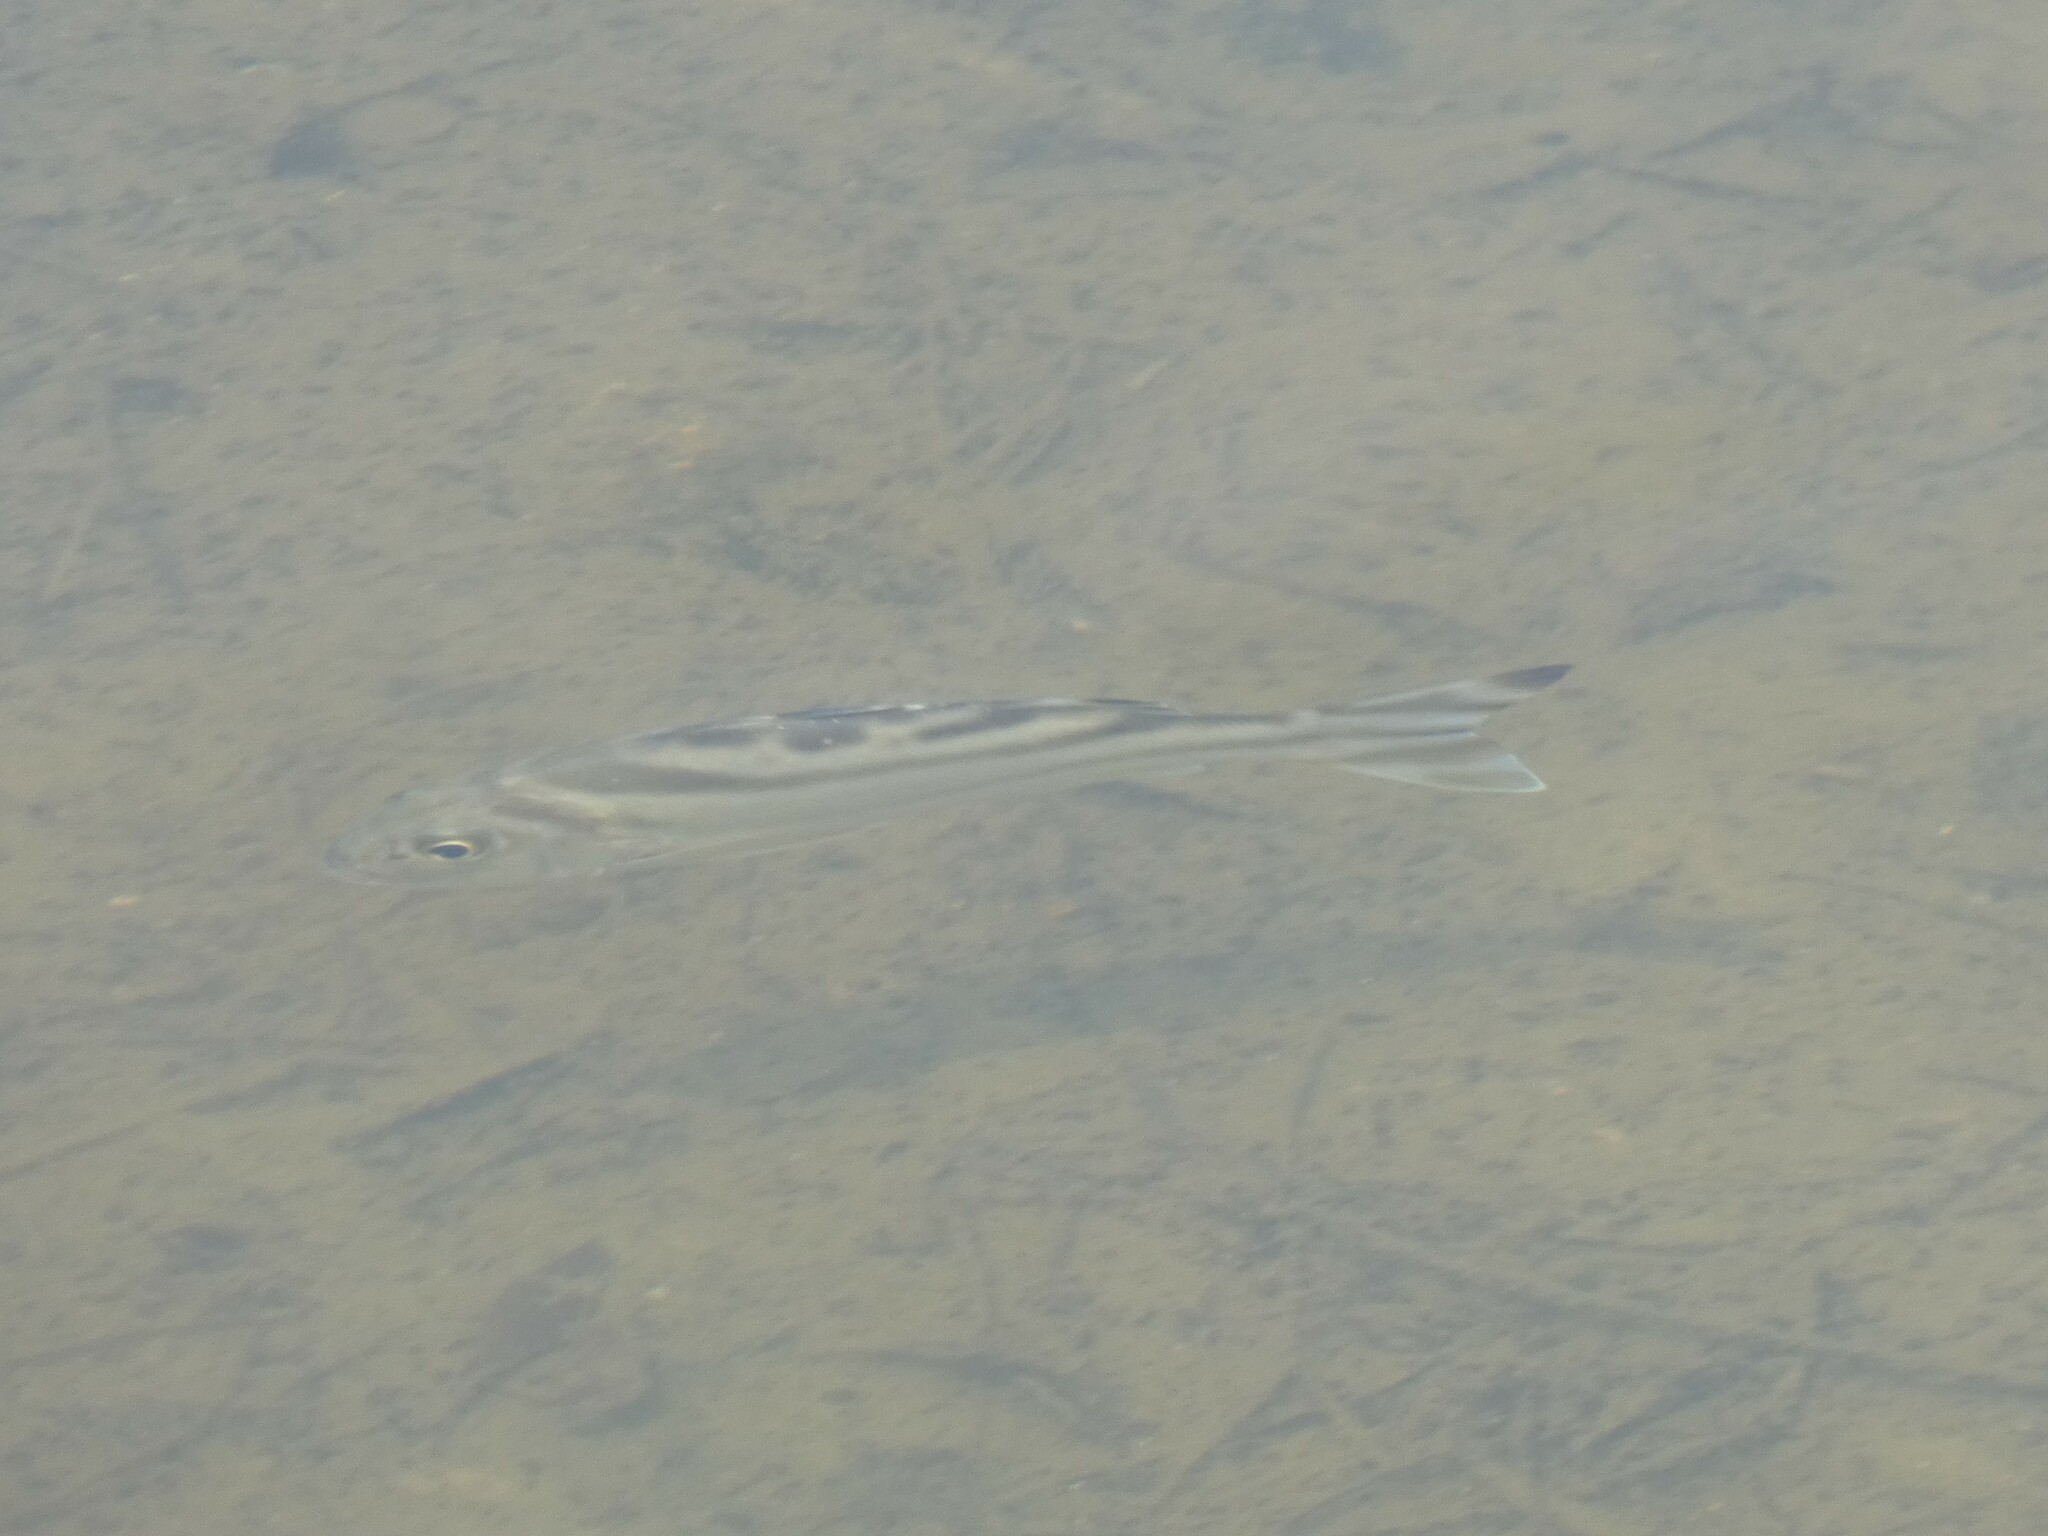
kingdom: Animalia
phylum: Chordata
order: Perciformes
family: Terapontidae
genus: Terapon
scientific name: Terapon jarbua
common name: Jarbua terapon
